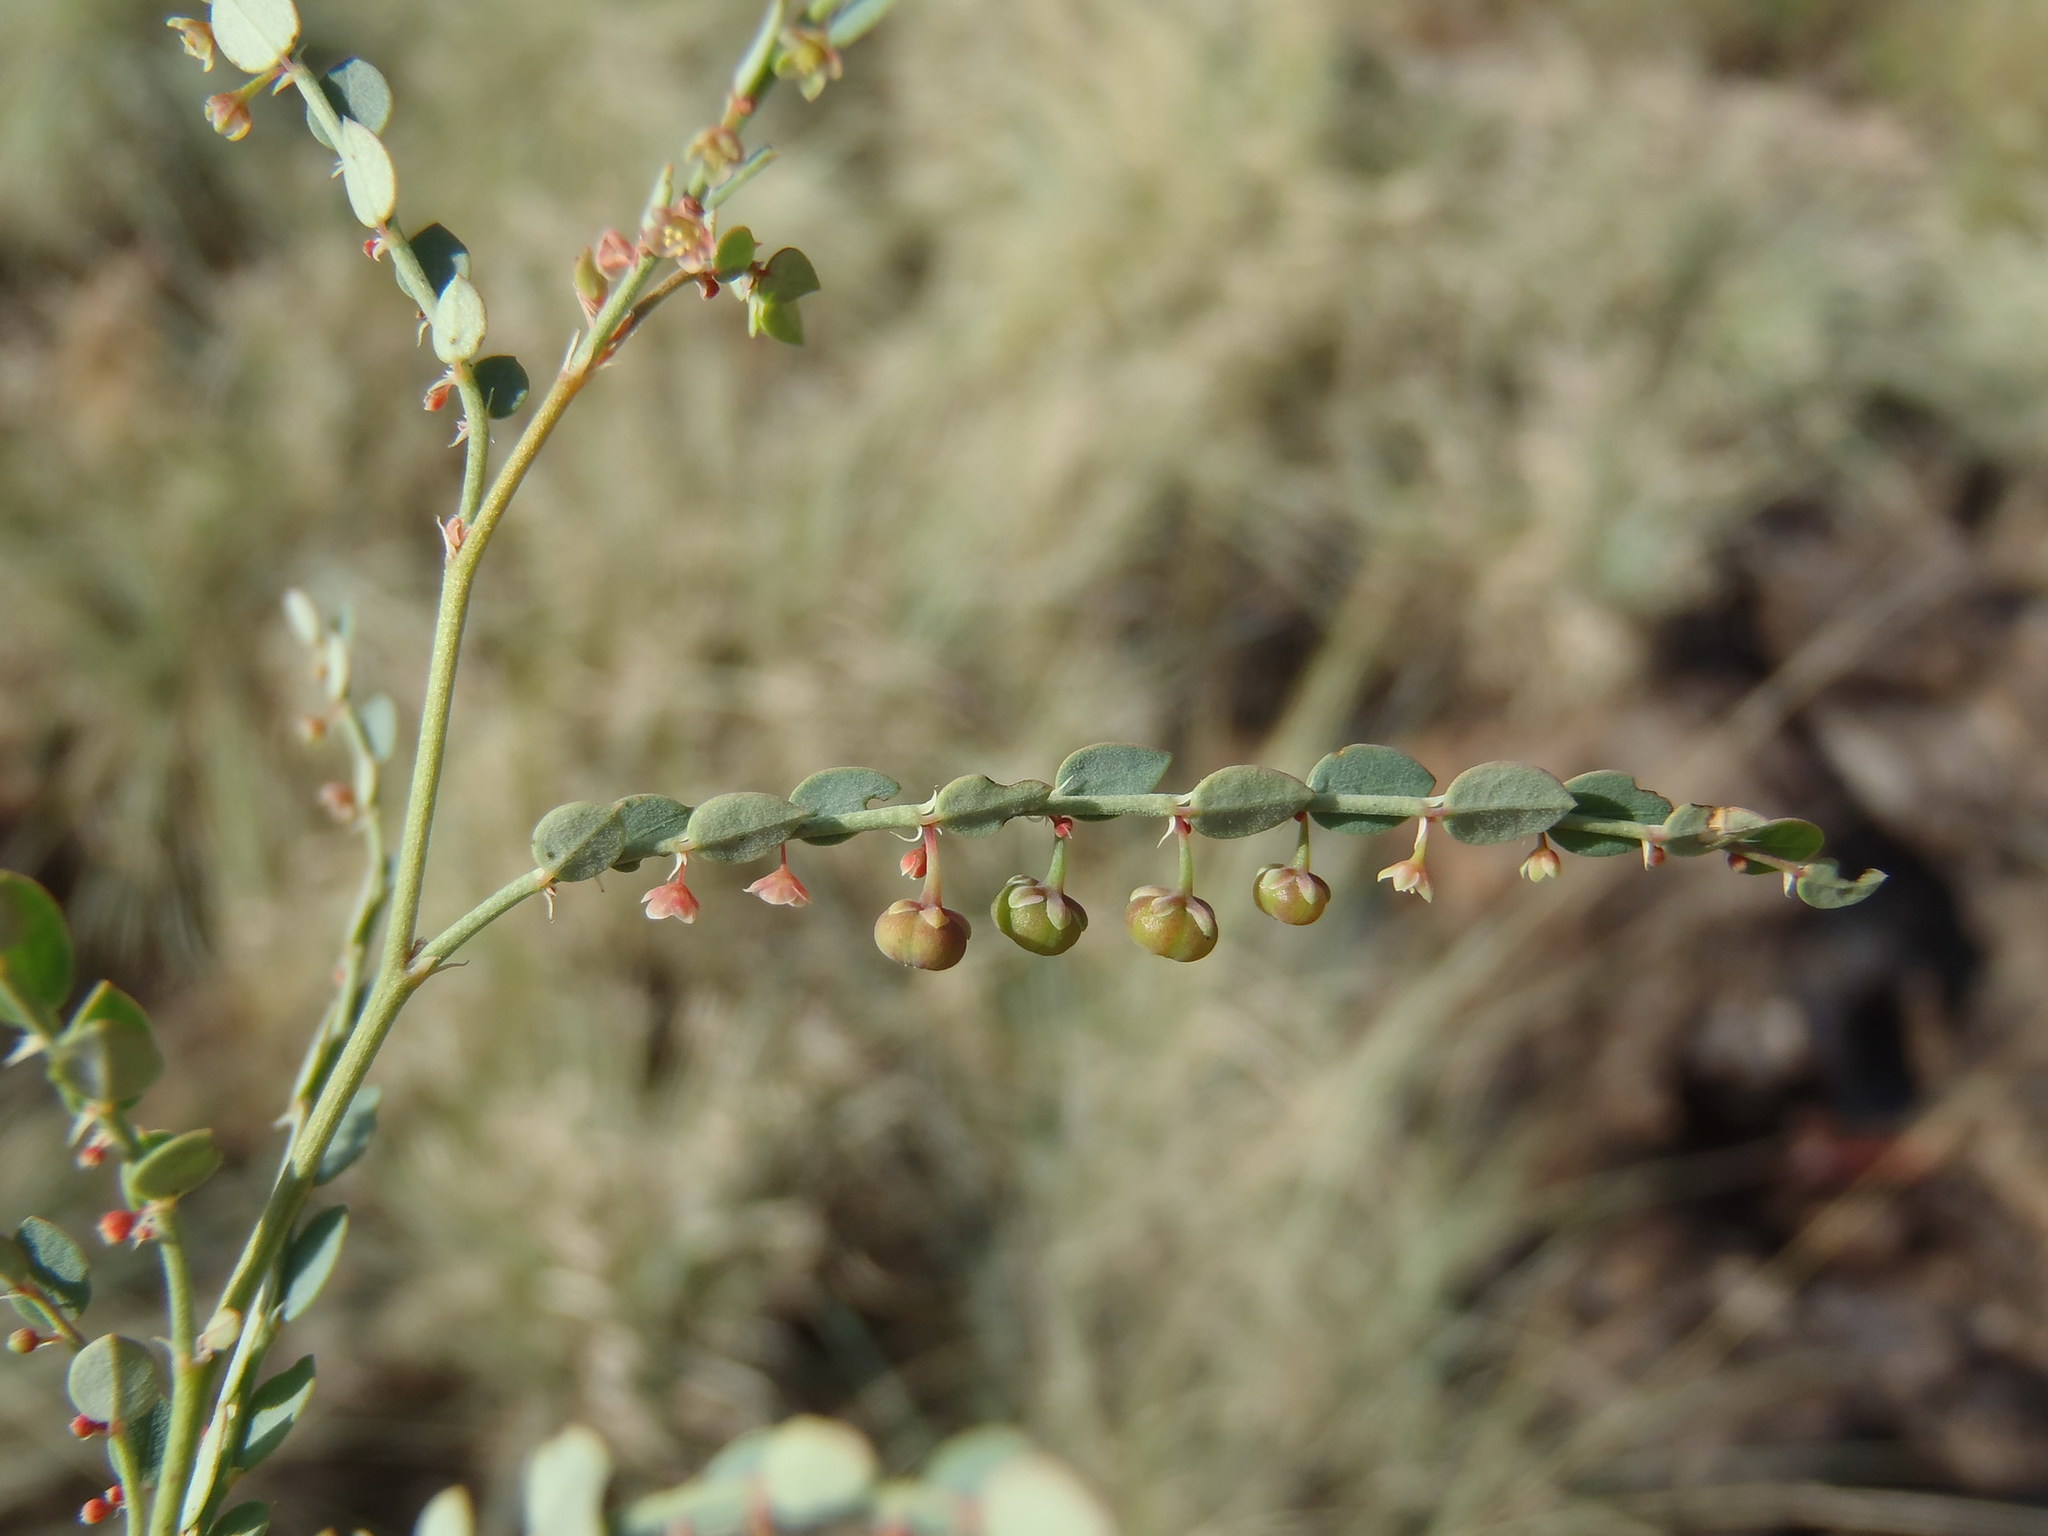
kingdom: Plantae
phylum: Tracheophyta
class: Magnoliopsida
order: Malpighiales
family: Phyllanthaceae
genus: Phyllanthus
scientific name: Phyllanthus parvulus
